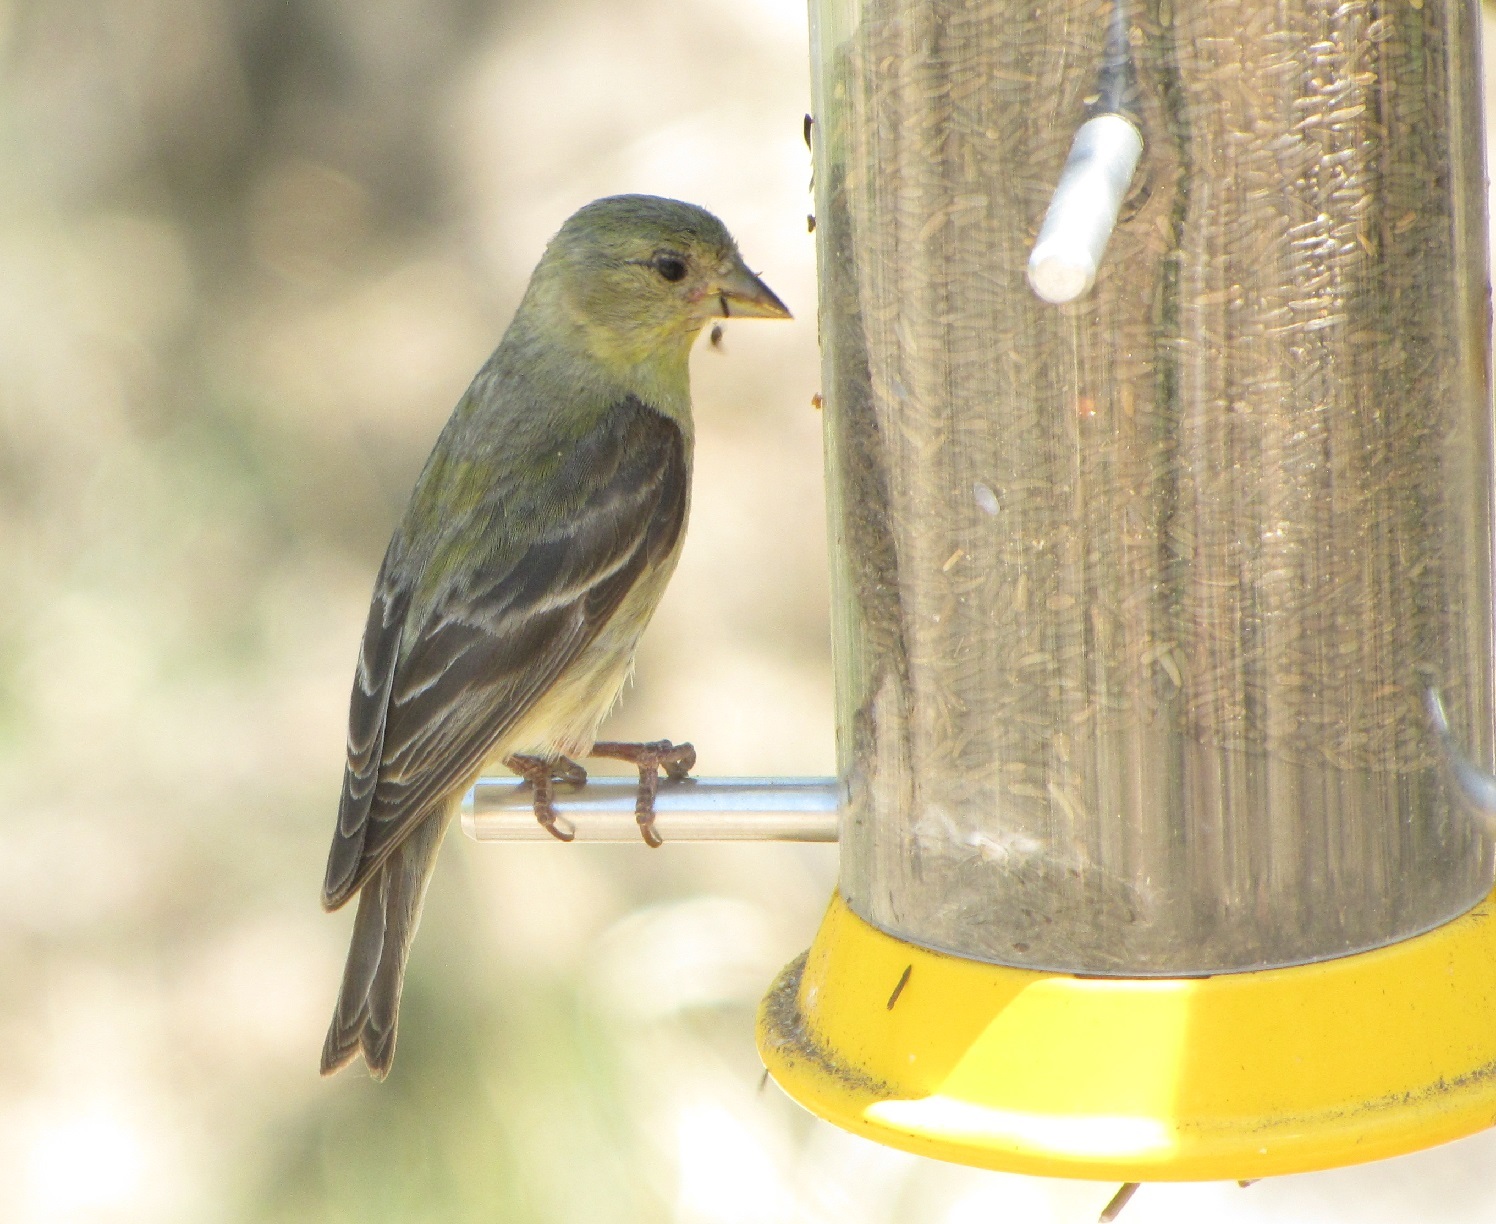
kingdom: Animalia
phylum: Chordata
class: Aves
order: Passeriformes
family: Fringillidae
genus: Spinus
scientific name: Spinus psaltria
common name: Lesser goldfinch
